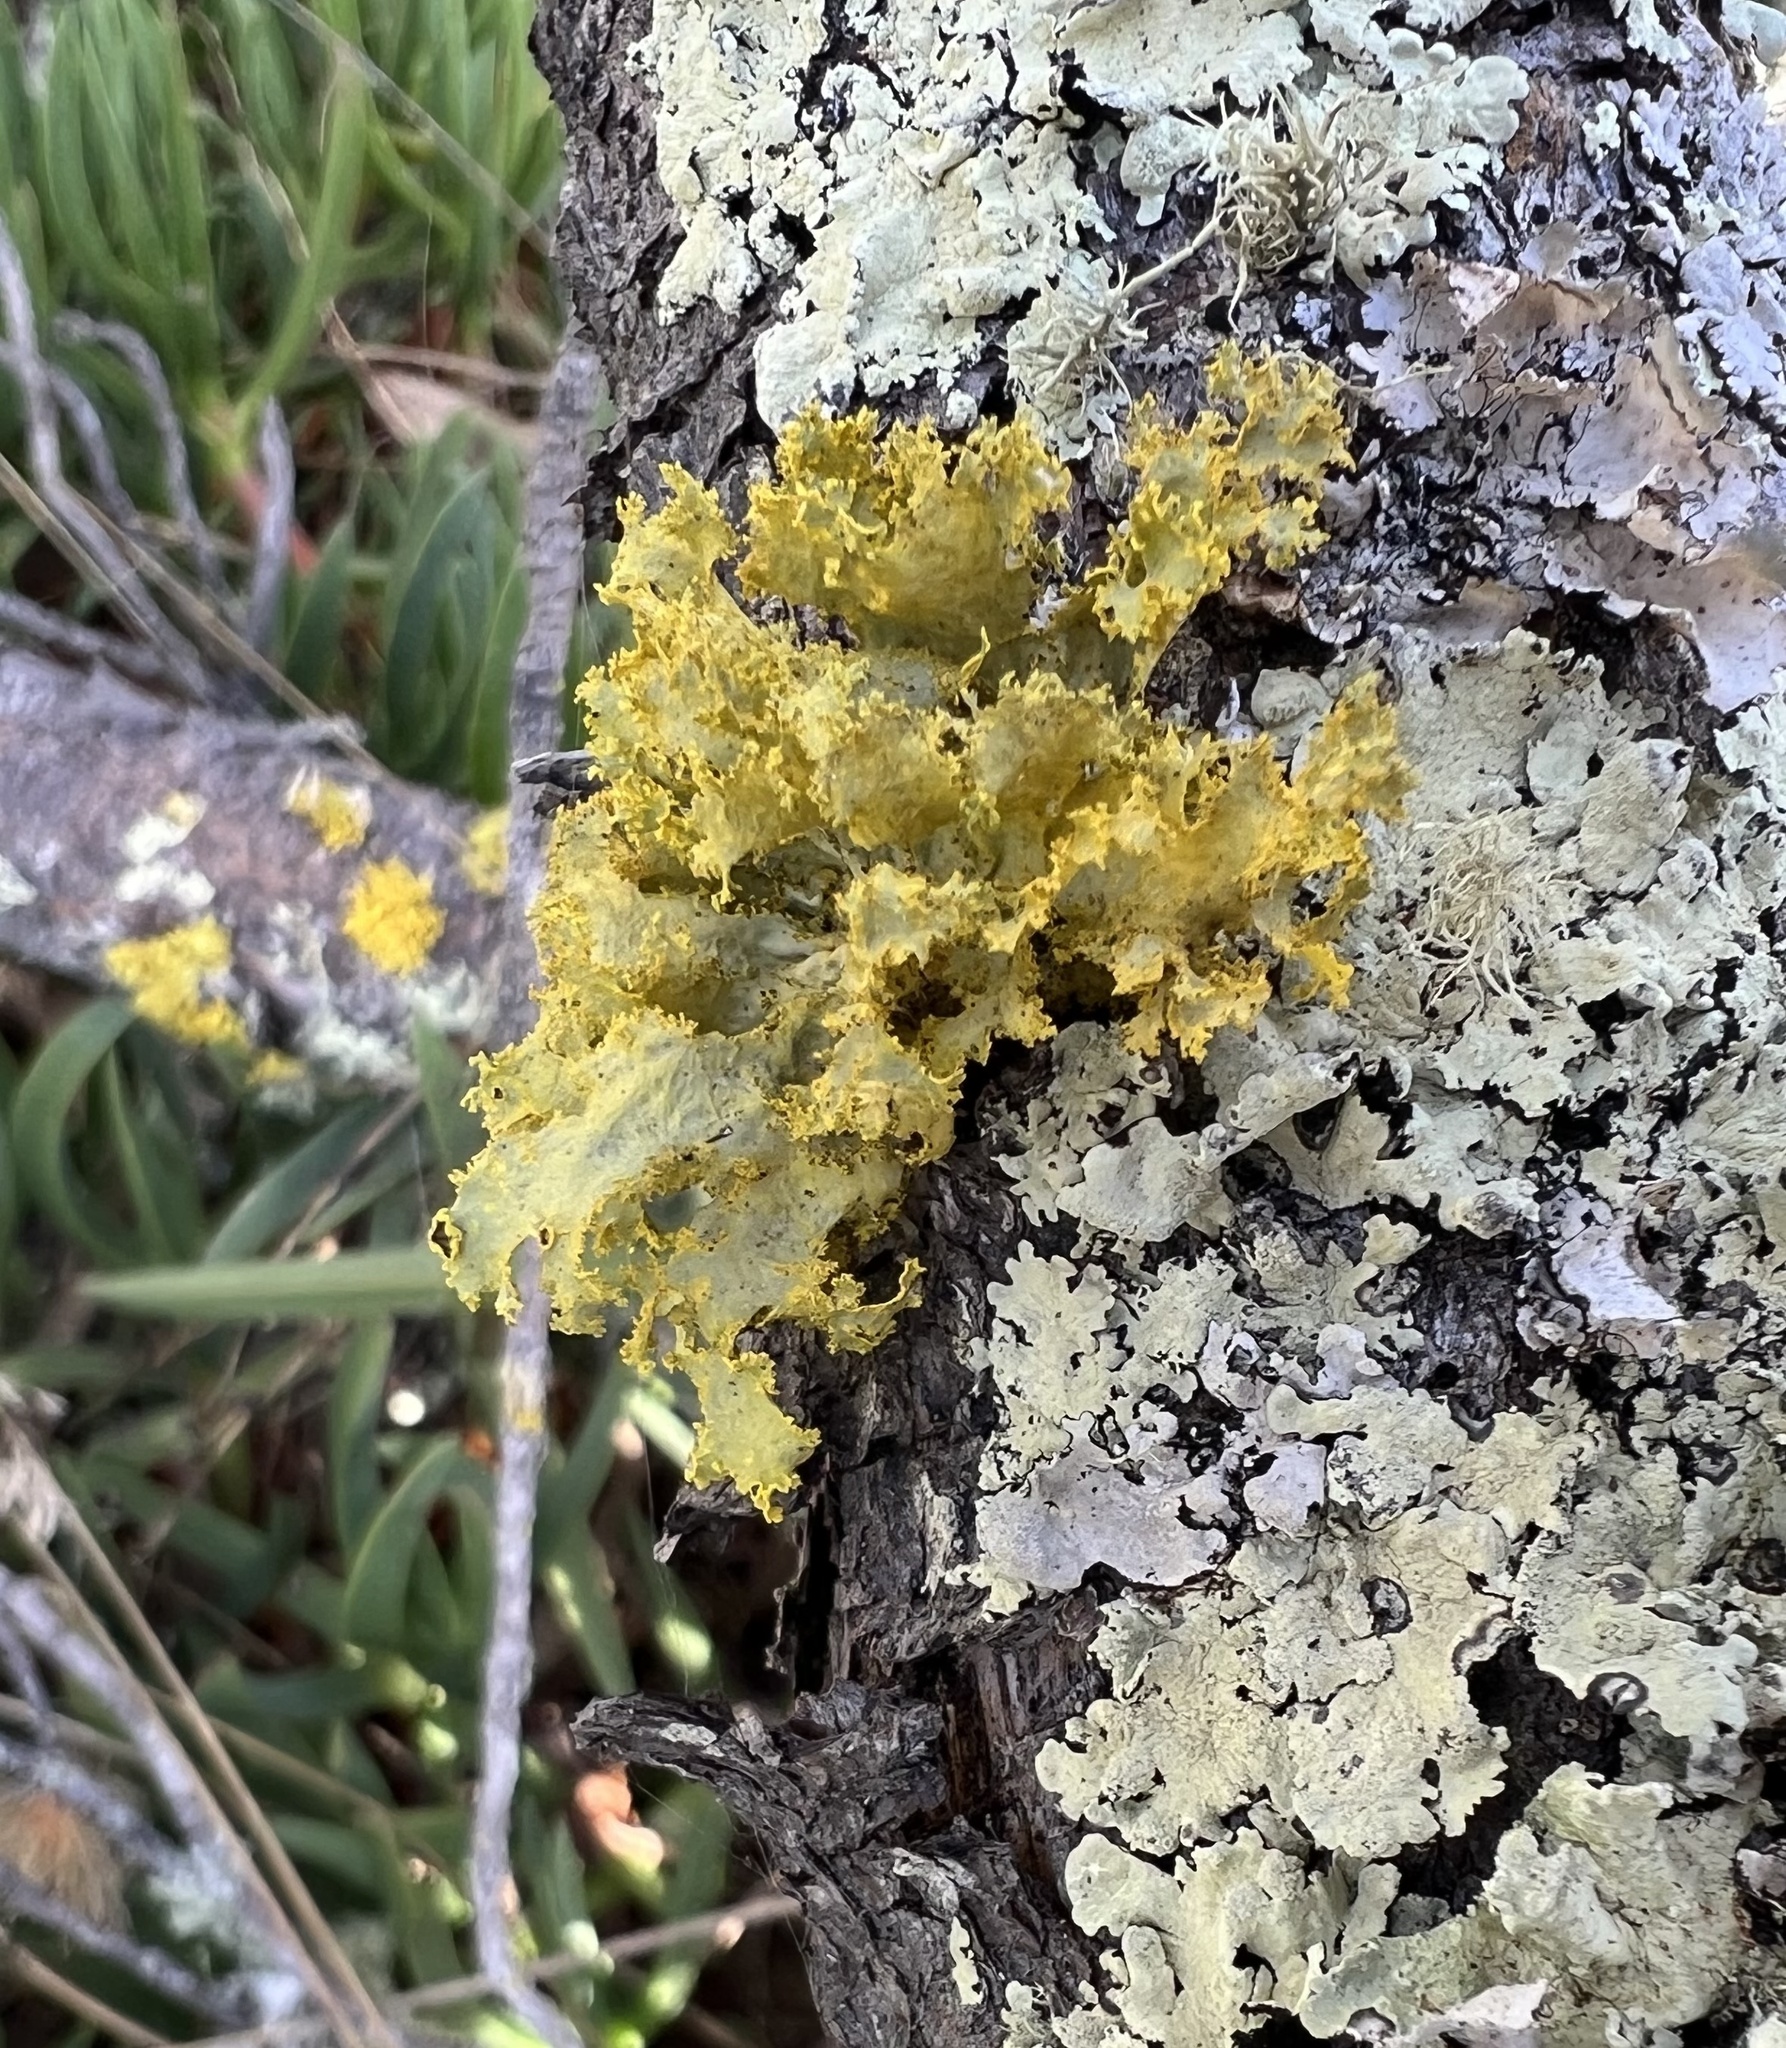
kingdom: Fungi
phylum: Ascomycota
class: Lecanoromycetes
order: Lecanorales
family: Parmeliaceae
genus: Vulpicida
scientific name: Vulpicida canadensis
